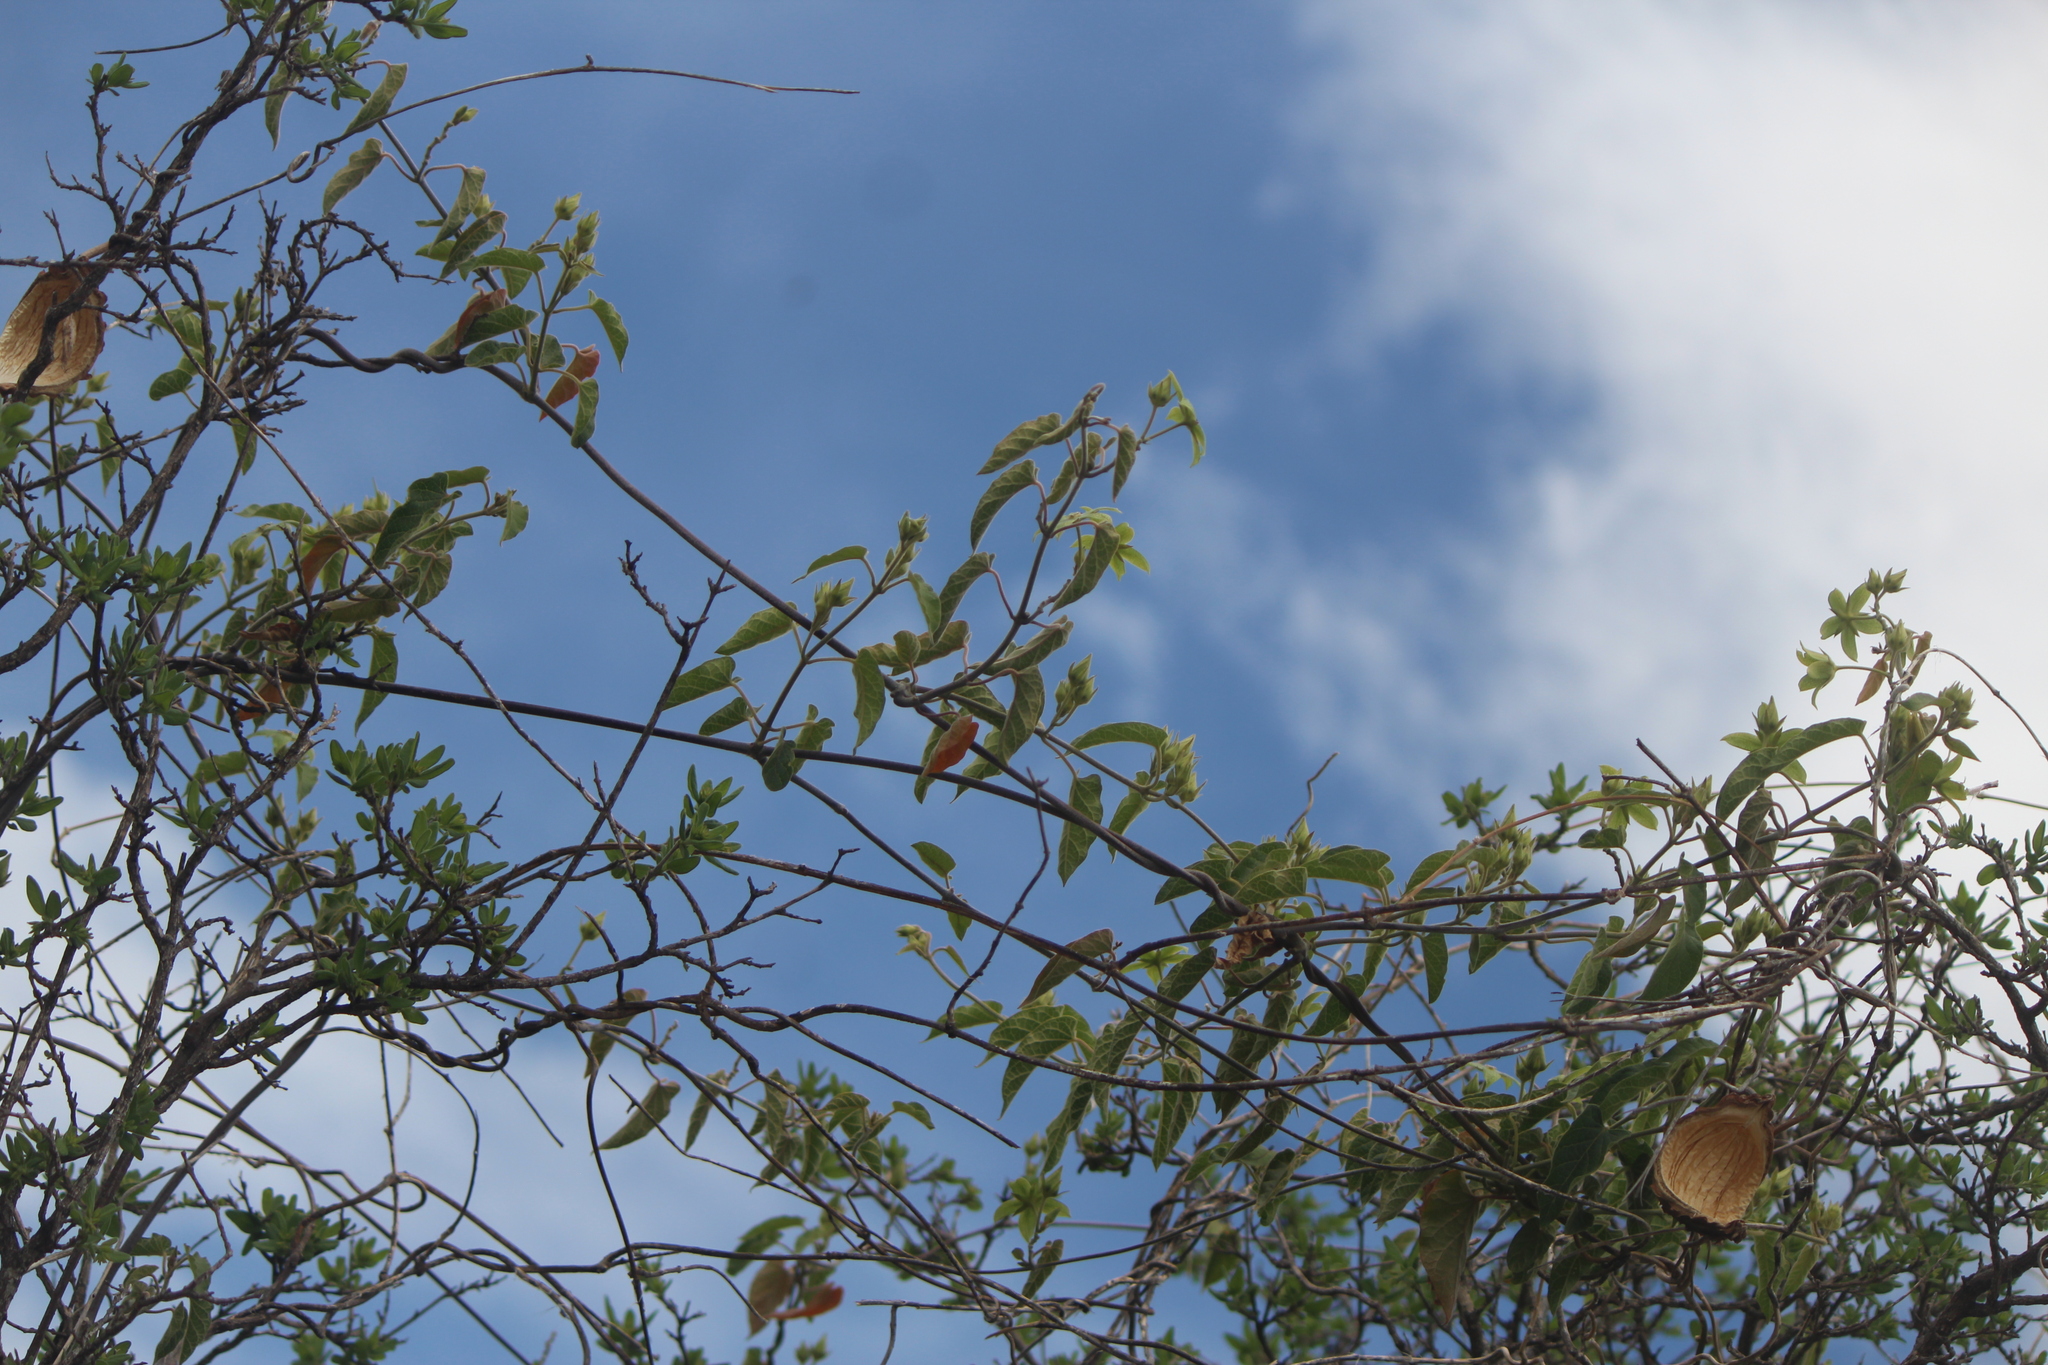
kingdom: Plantae
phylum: Tracheophyta
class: Magnoliopsida
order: Gentianales
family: Apocynaceae
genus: Gonolobus
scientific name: Gonolobus grandiflorus
